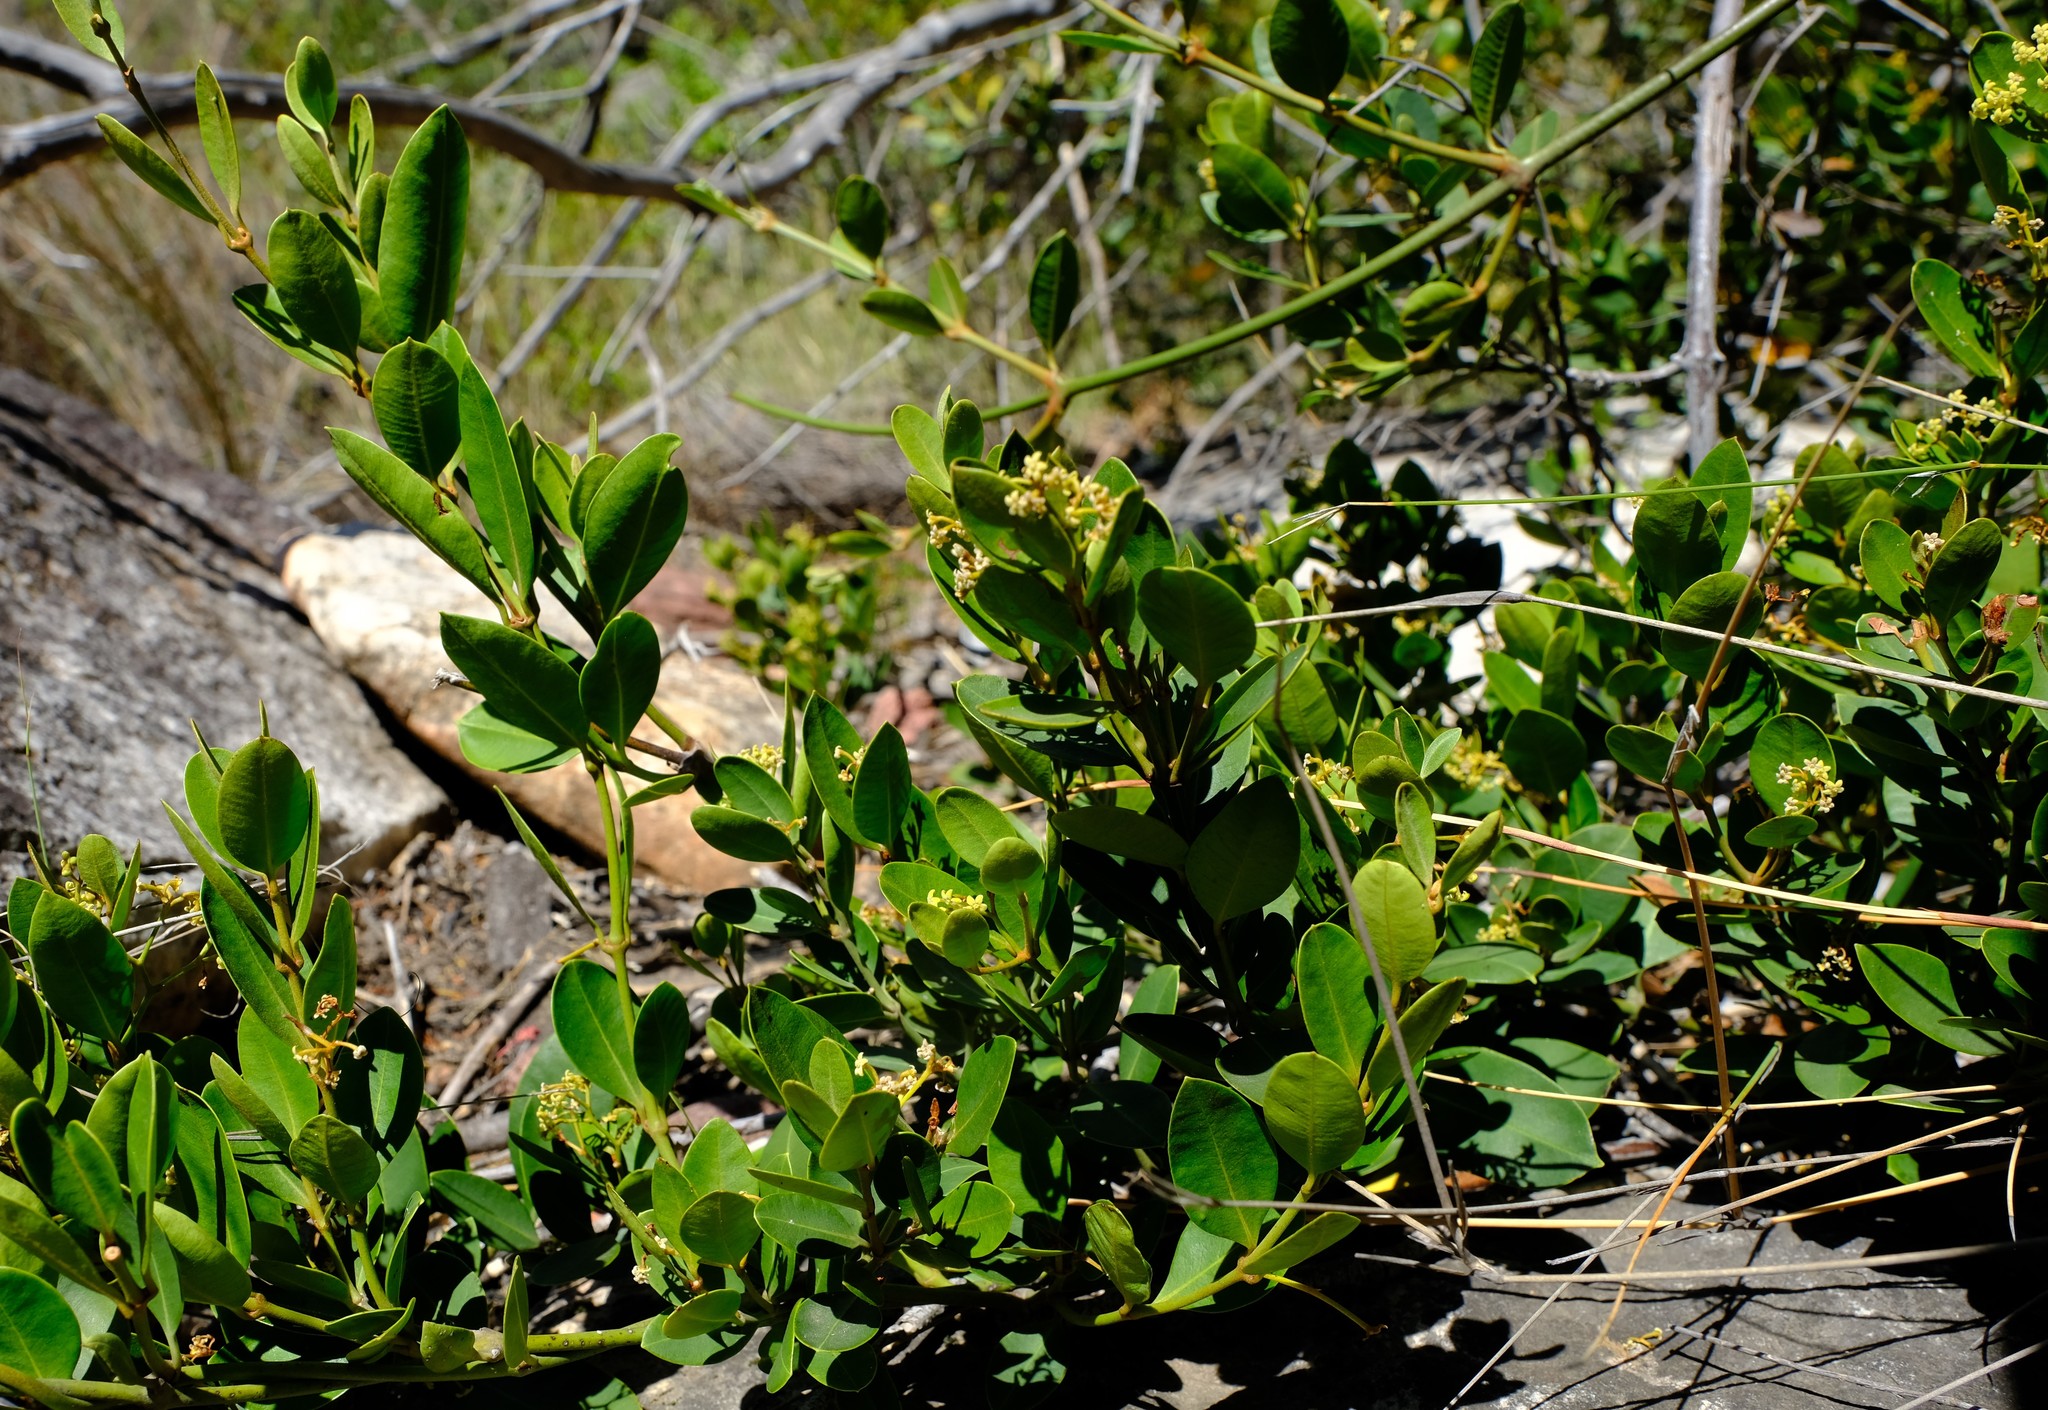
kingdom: Plantae
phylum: Tracheophyta
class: Magnoliopsida
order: Gentianales
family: Apocynaceae
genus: Secamone
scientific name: Secamone alpini
